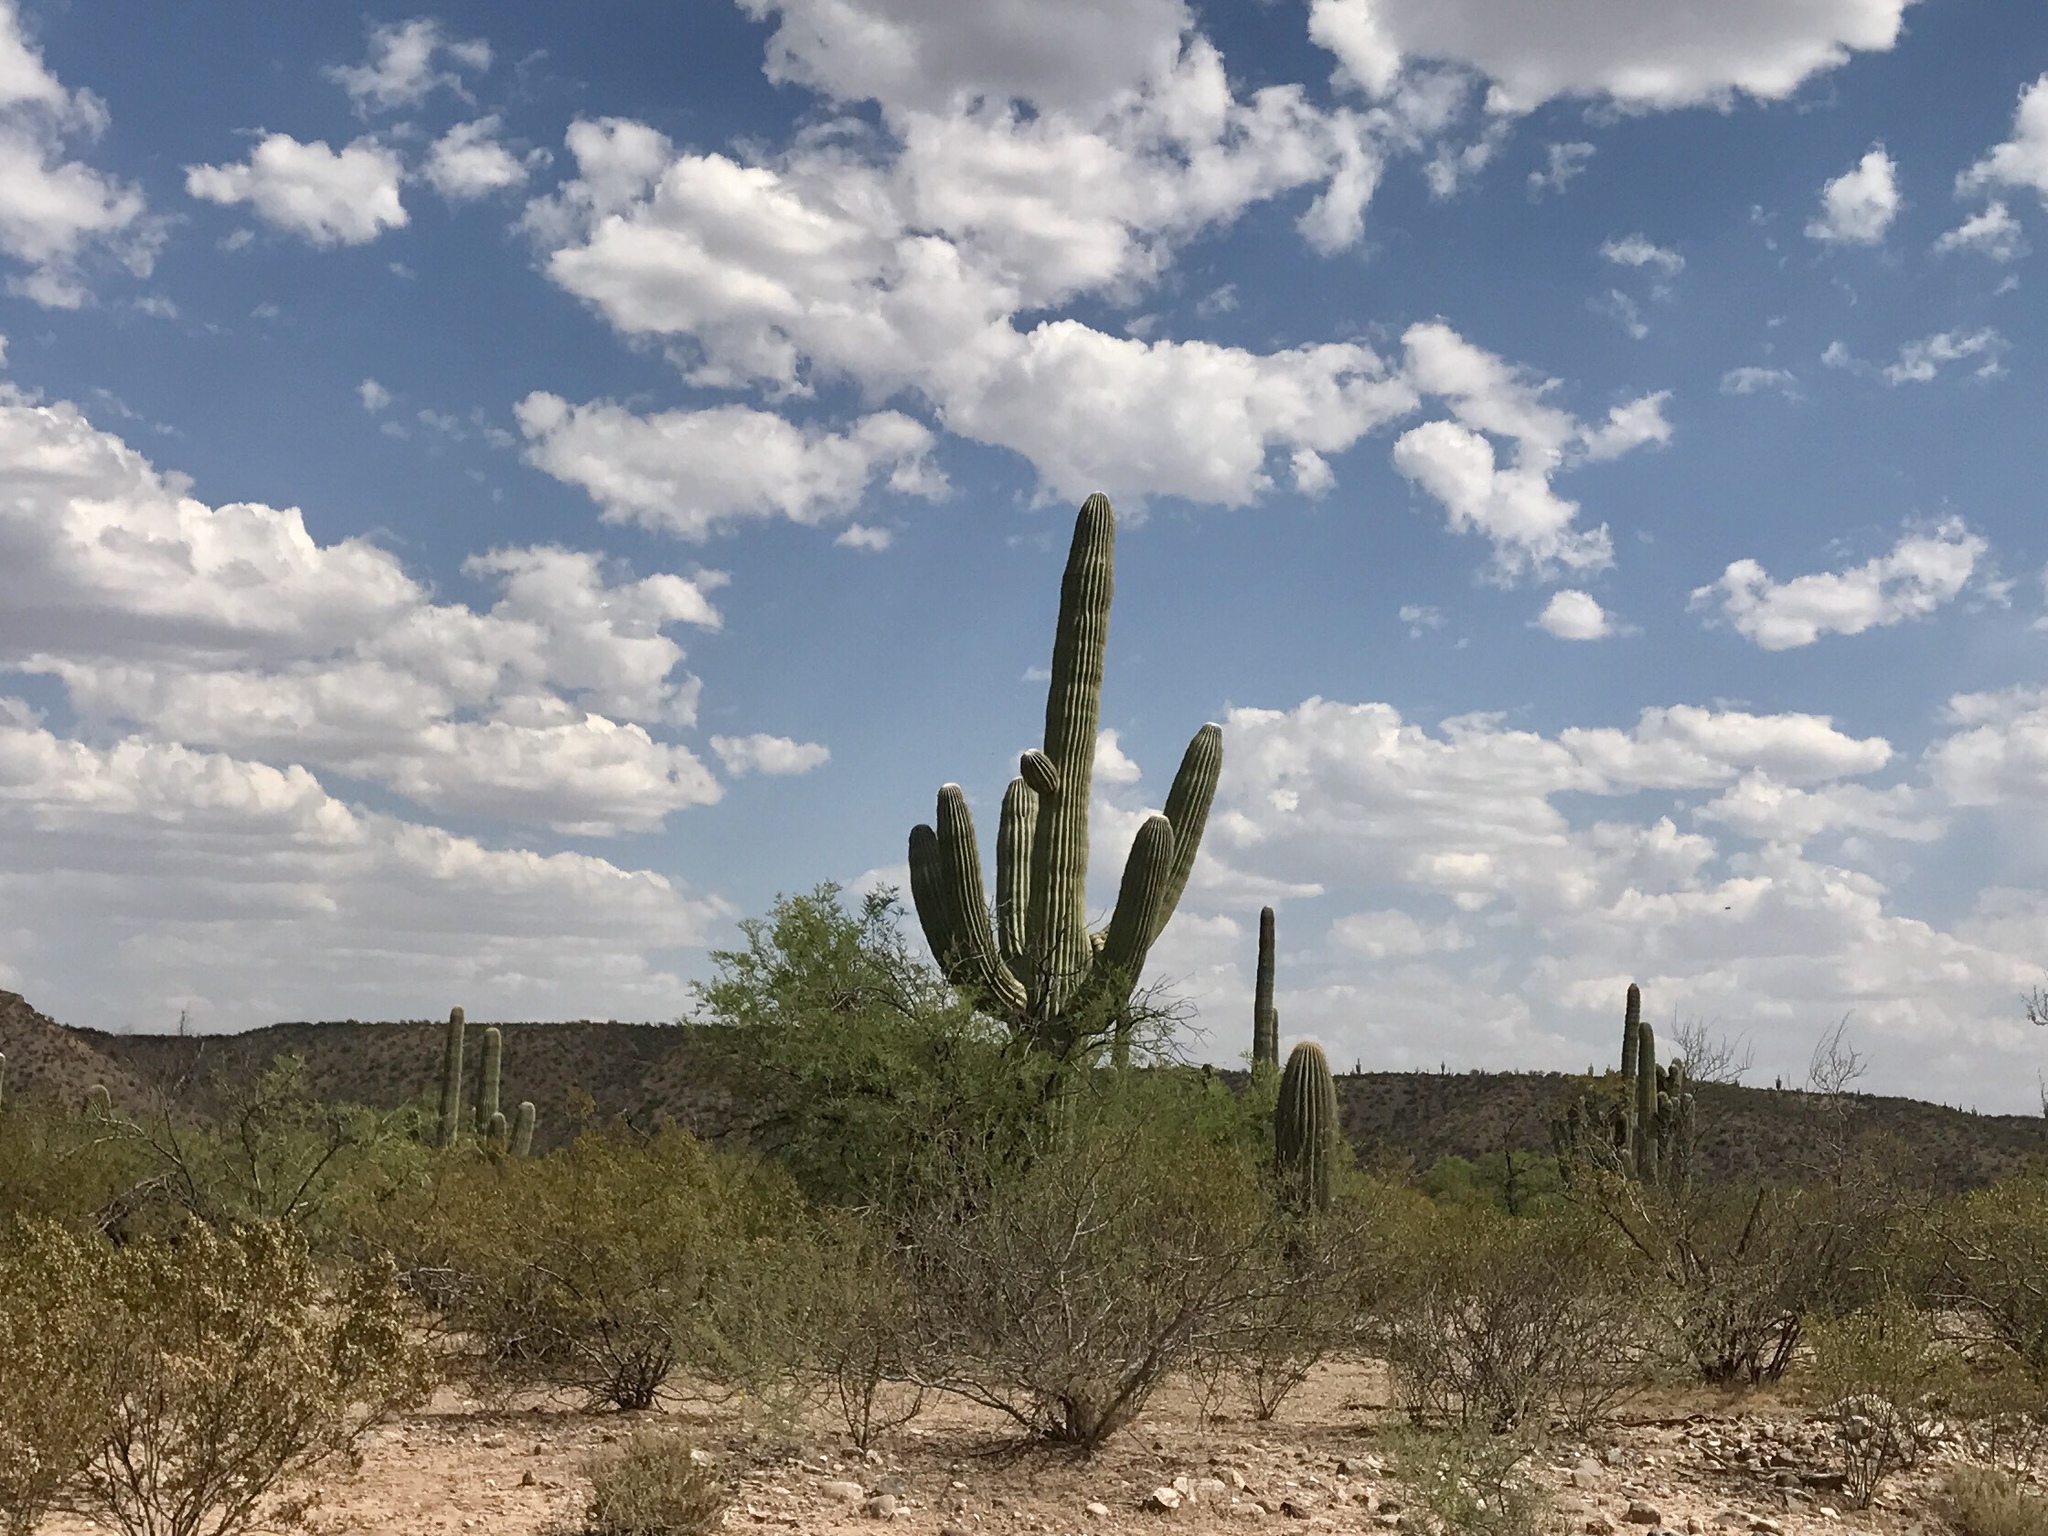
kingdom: Plantae
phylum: Tracheophyta
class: Magnoliopsida
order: Caryophyllales
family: Cactaceae
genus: Carnegiea
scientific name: Carnegiea gigantea
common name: Saguaro
